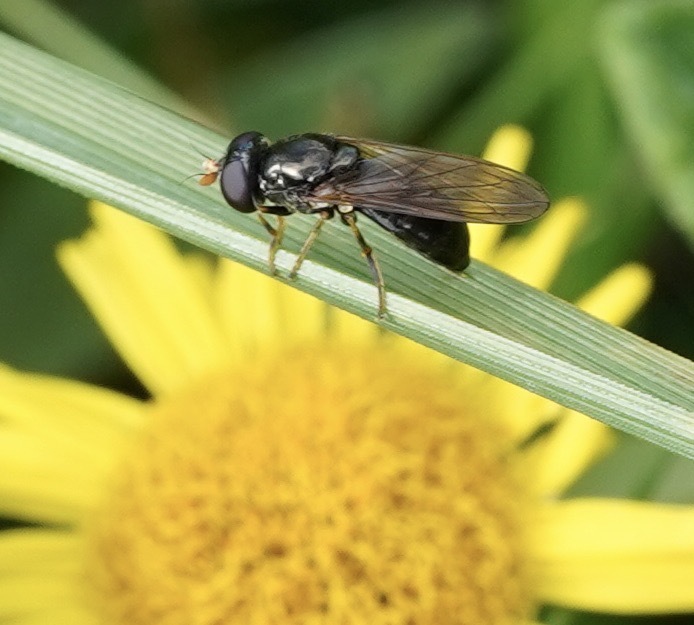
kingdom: Animalia
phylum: Arthropoda
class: Insecta
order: Diptera
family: Syrphidae
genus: Cheilosia
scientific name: Cheilosia pagana
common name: Hover fly
